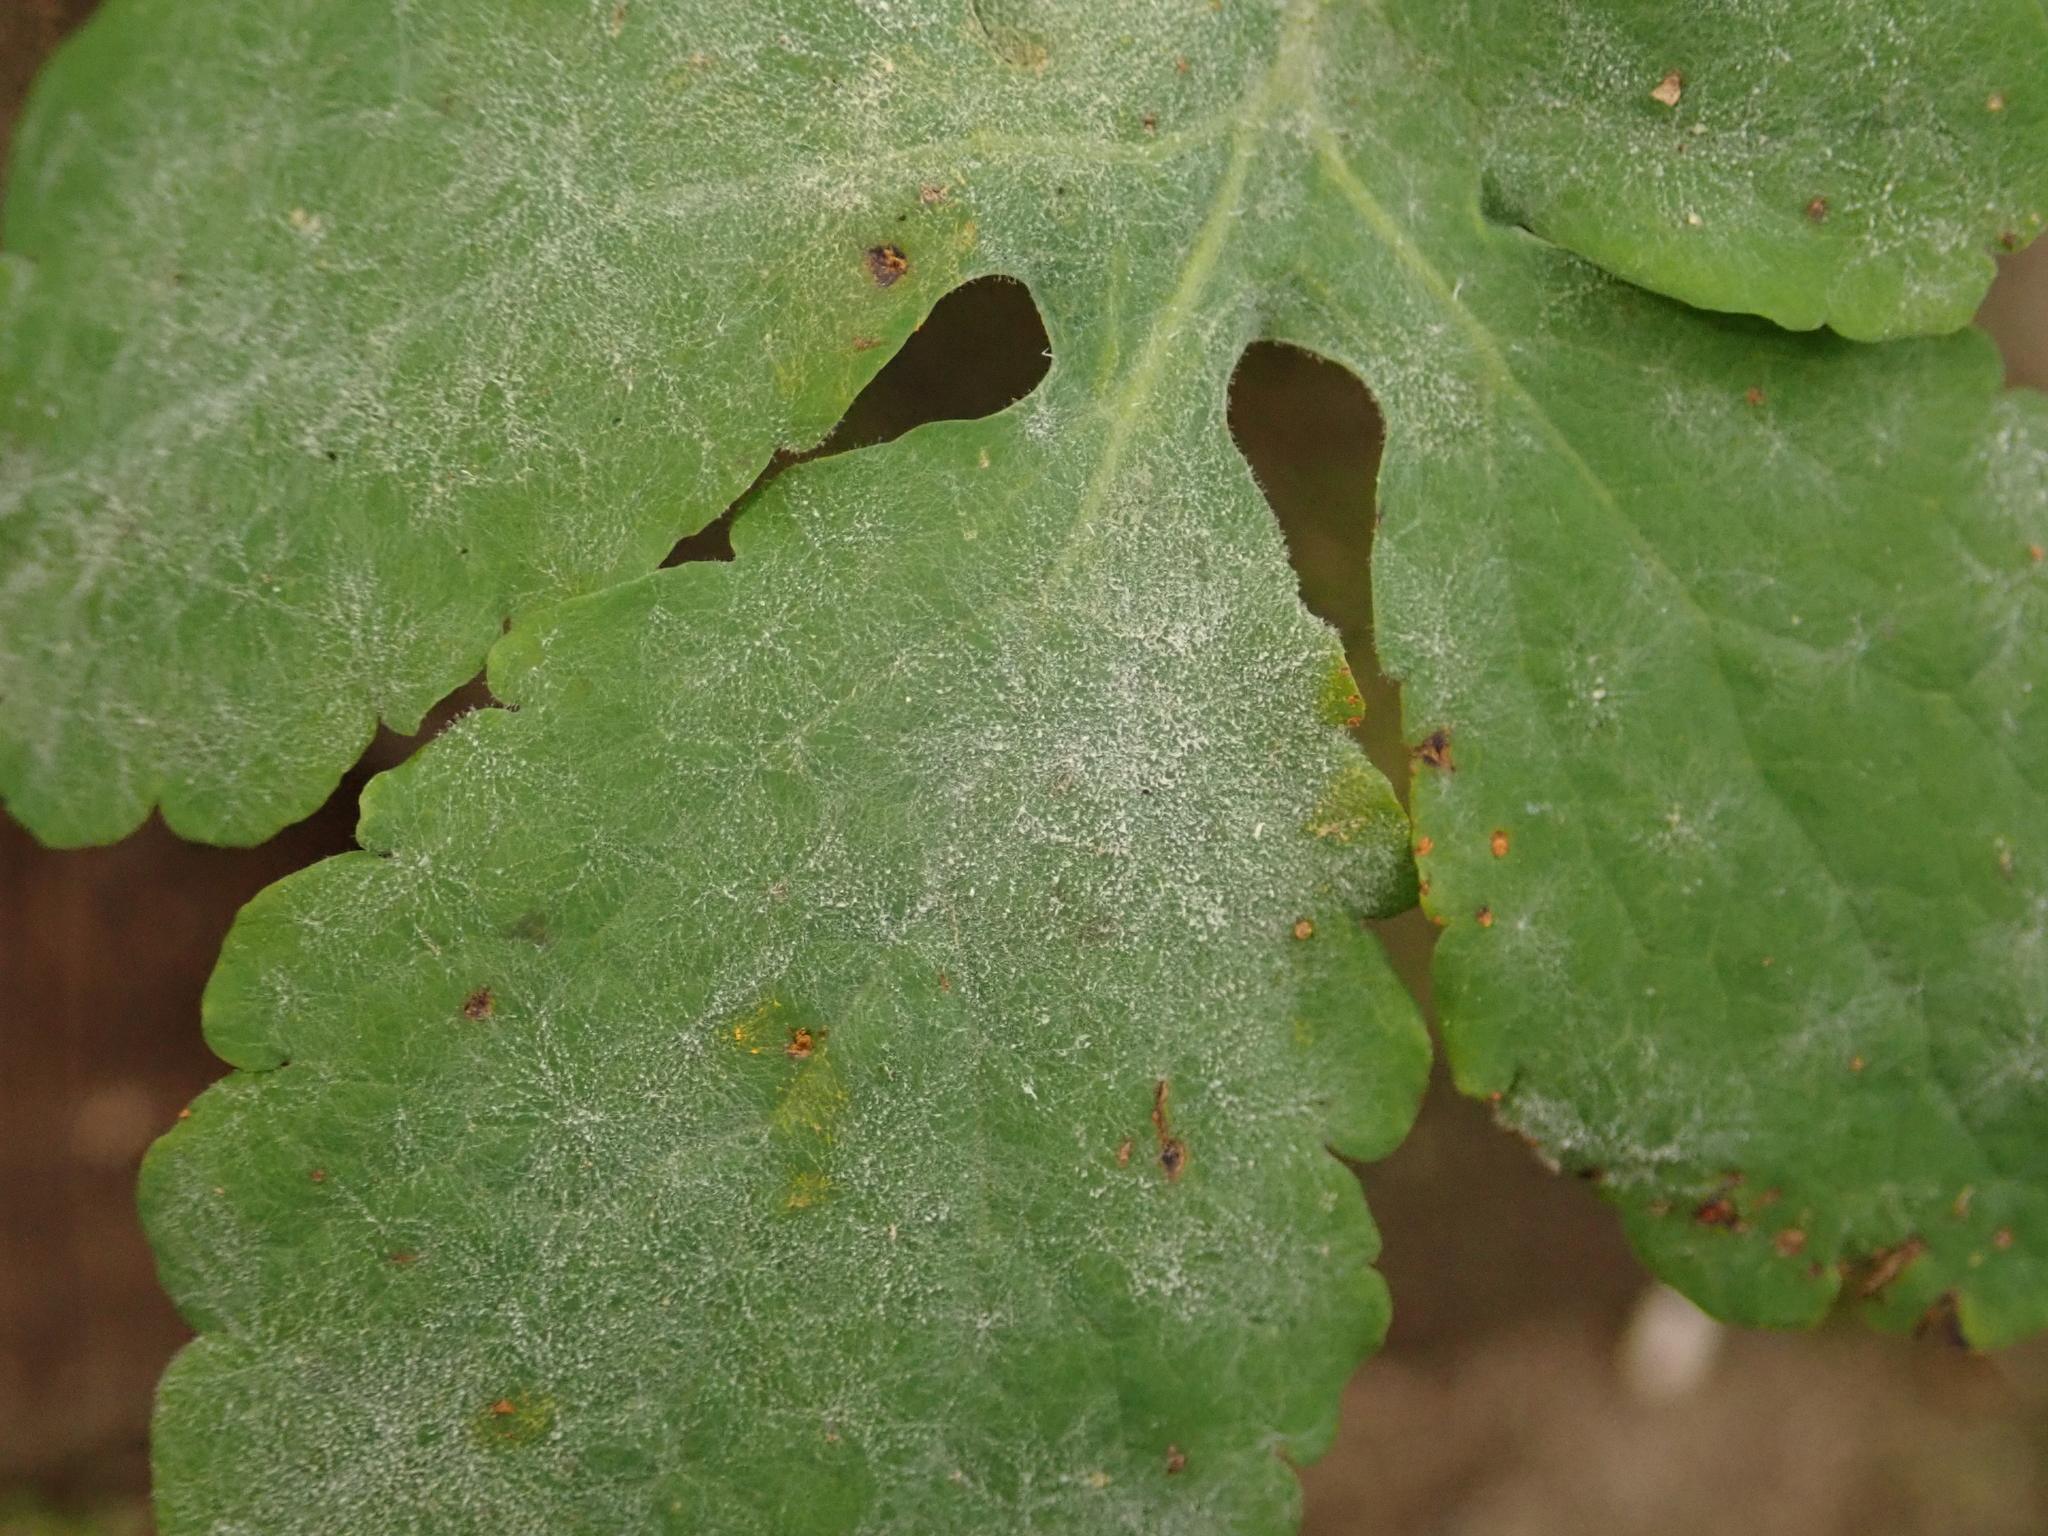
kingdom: Fungi
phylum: Ascomycota
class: Leotiomycetes
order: Helotiales
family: Erysiphaceae
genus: Erysiphe
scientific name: Erysiphe macleayae
